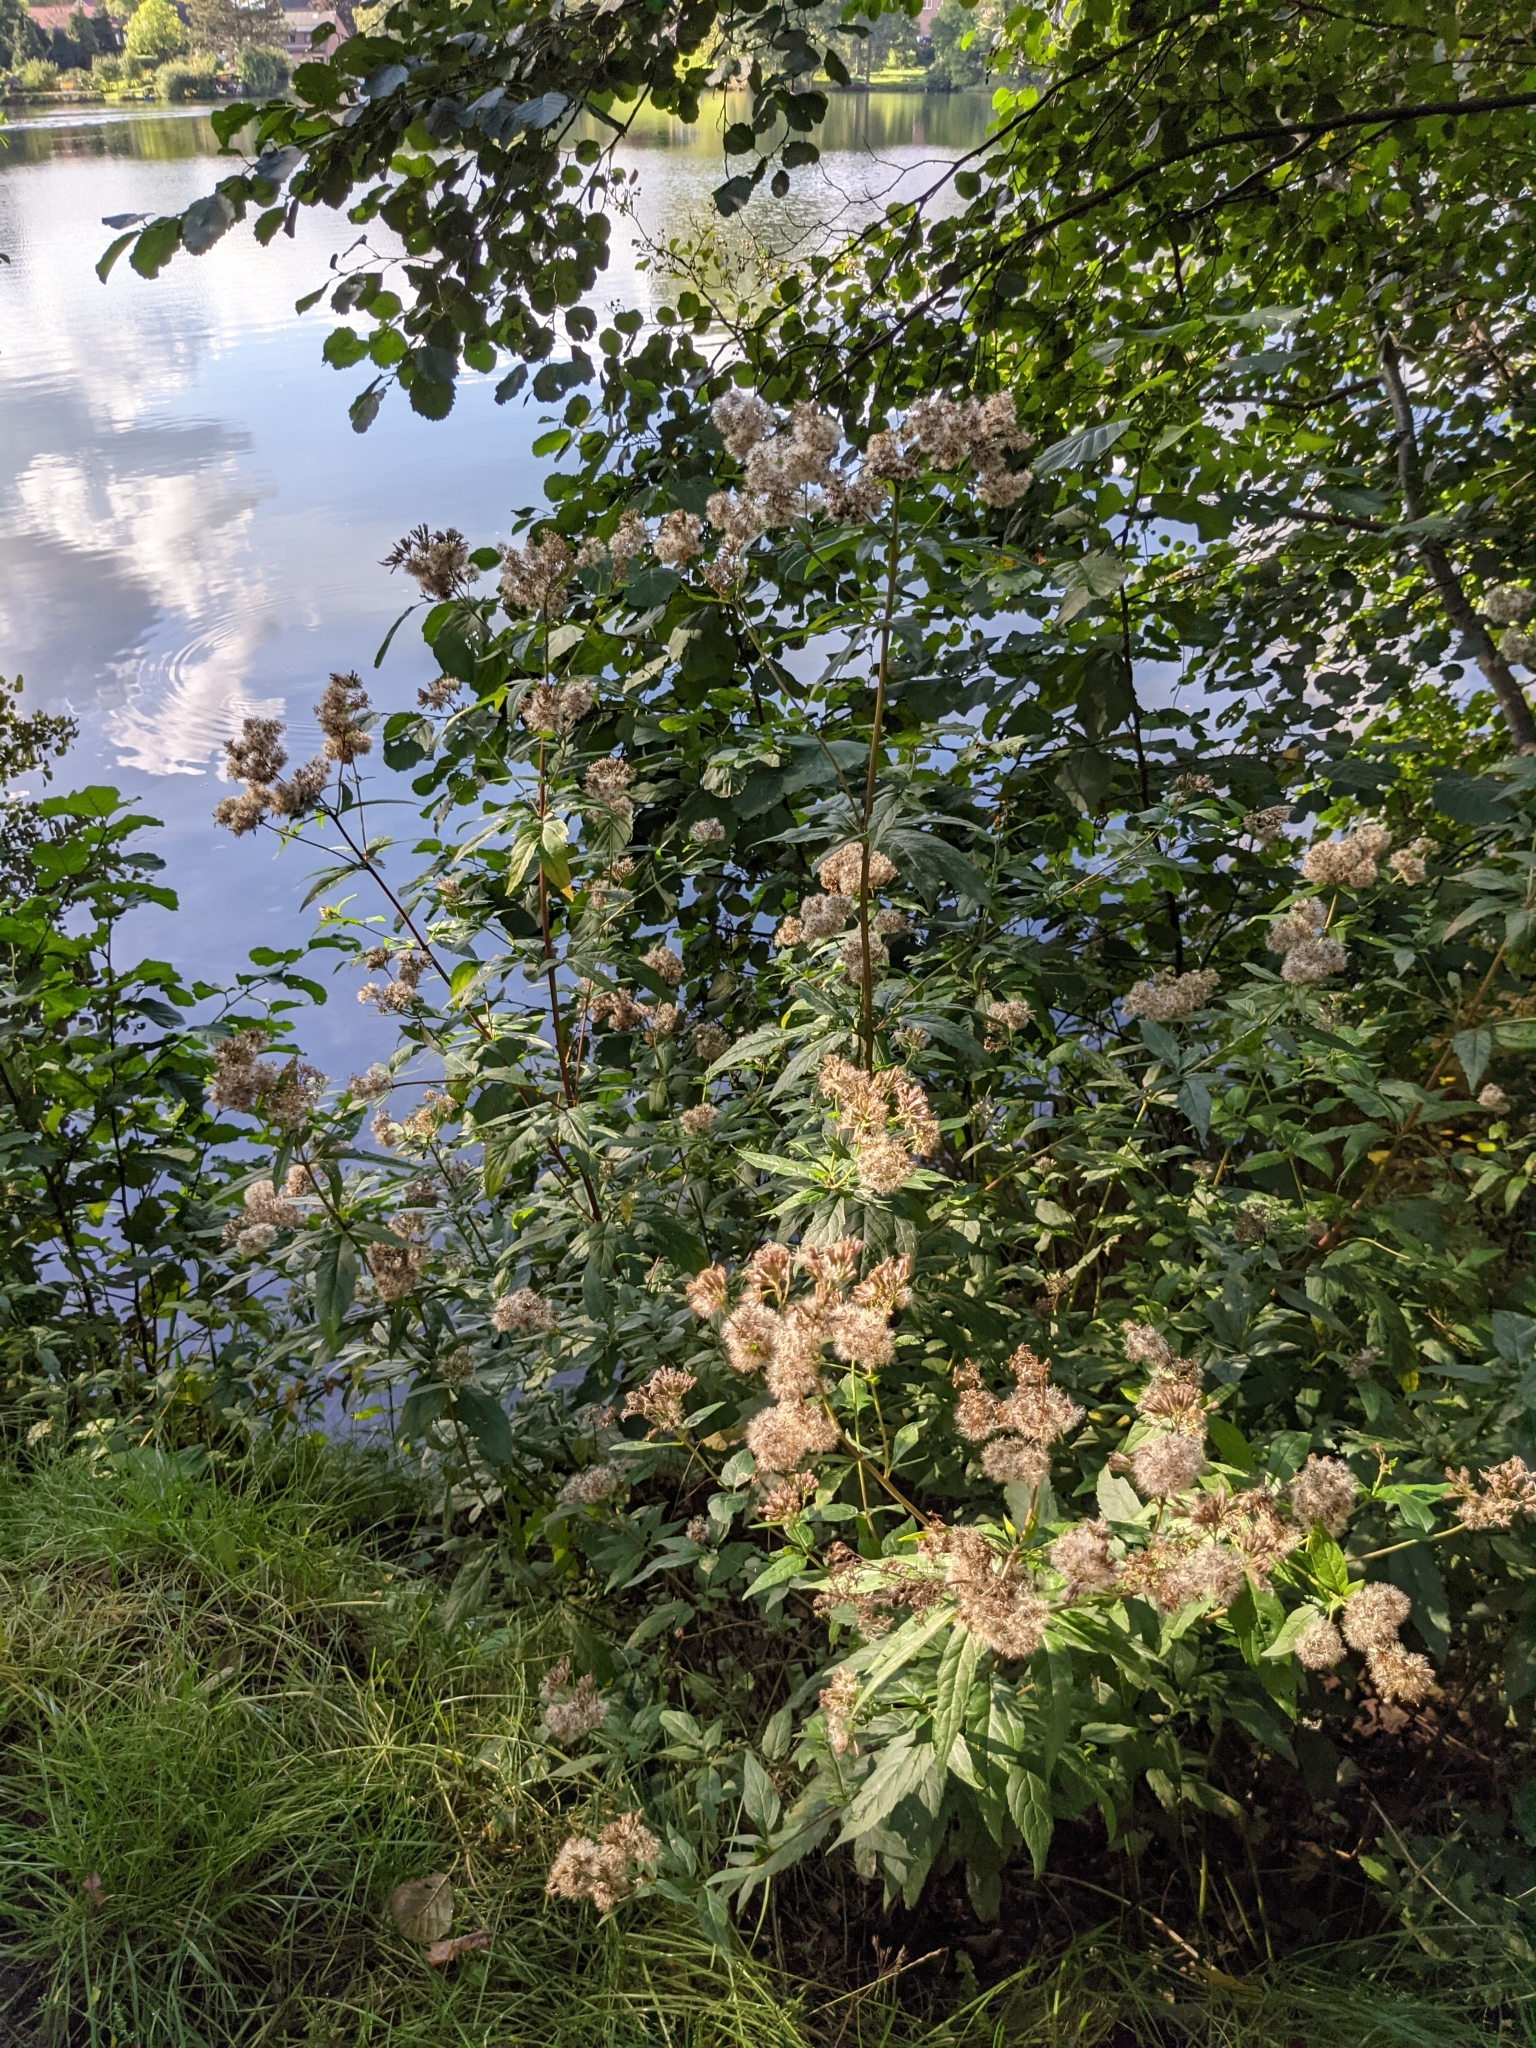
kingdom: Plantae
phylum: Tracheophyta
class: Magnoliopsida
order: Asterales
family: Asteraceae
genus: Eupatorium
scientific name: Eupatorium cannabinum
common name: Hemp-agrimony
